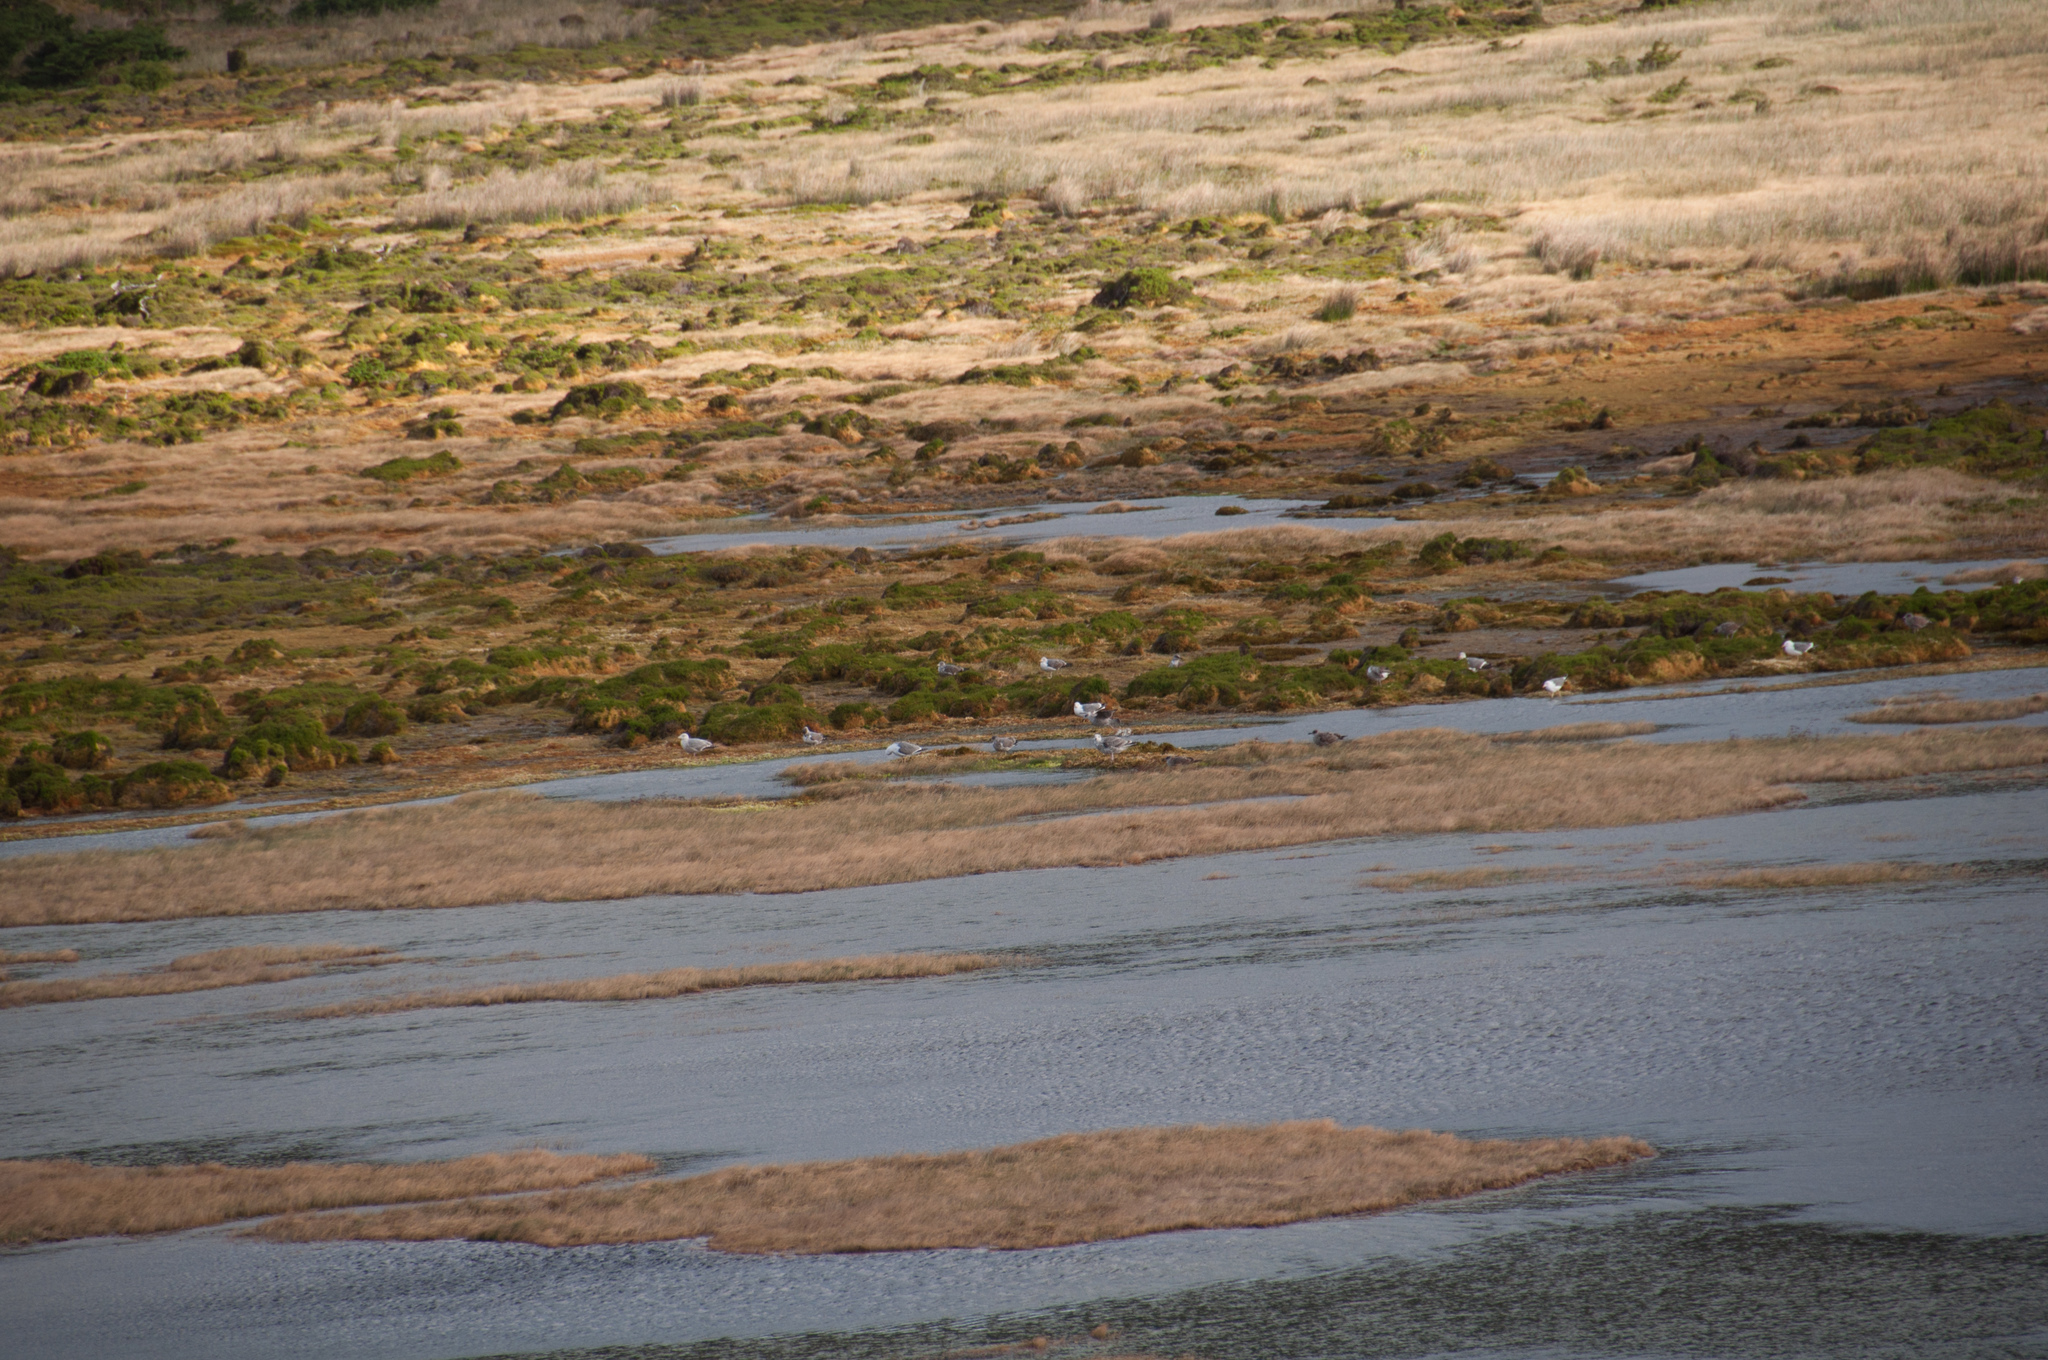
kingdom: Animalia
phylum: Chordata
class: Aves
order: Charadriiformes
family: Laridae
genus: Larus
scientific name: Larus michahellis
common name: Yellow-legged gull
